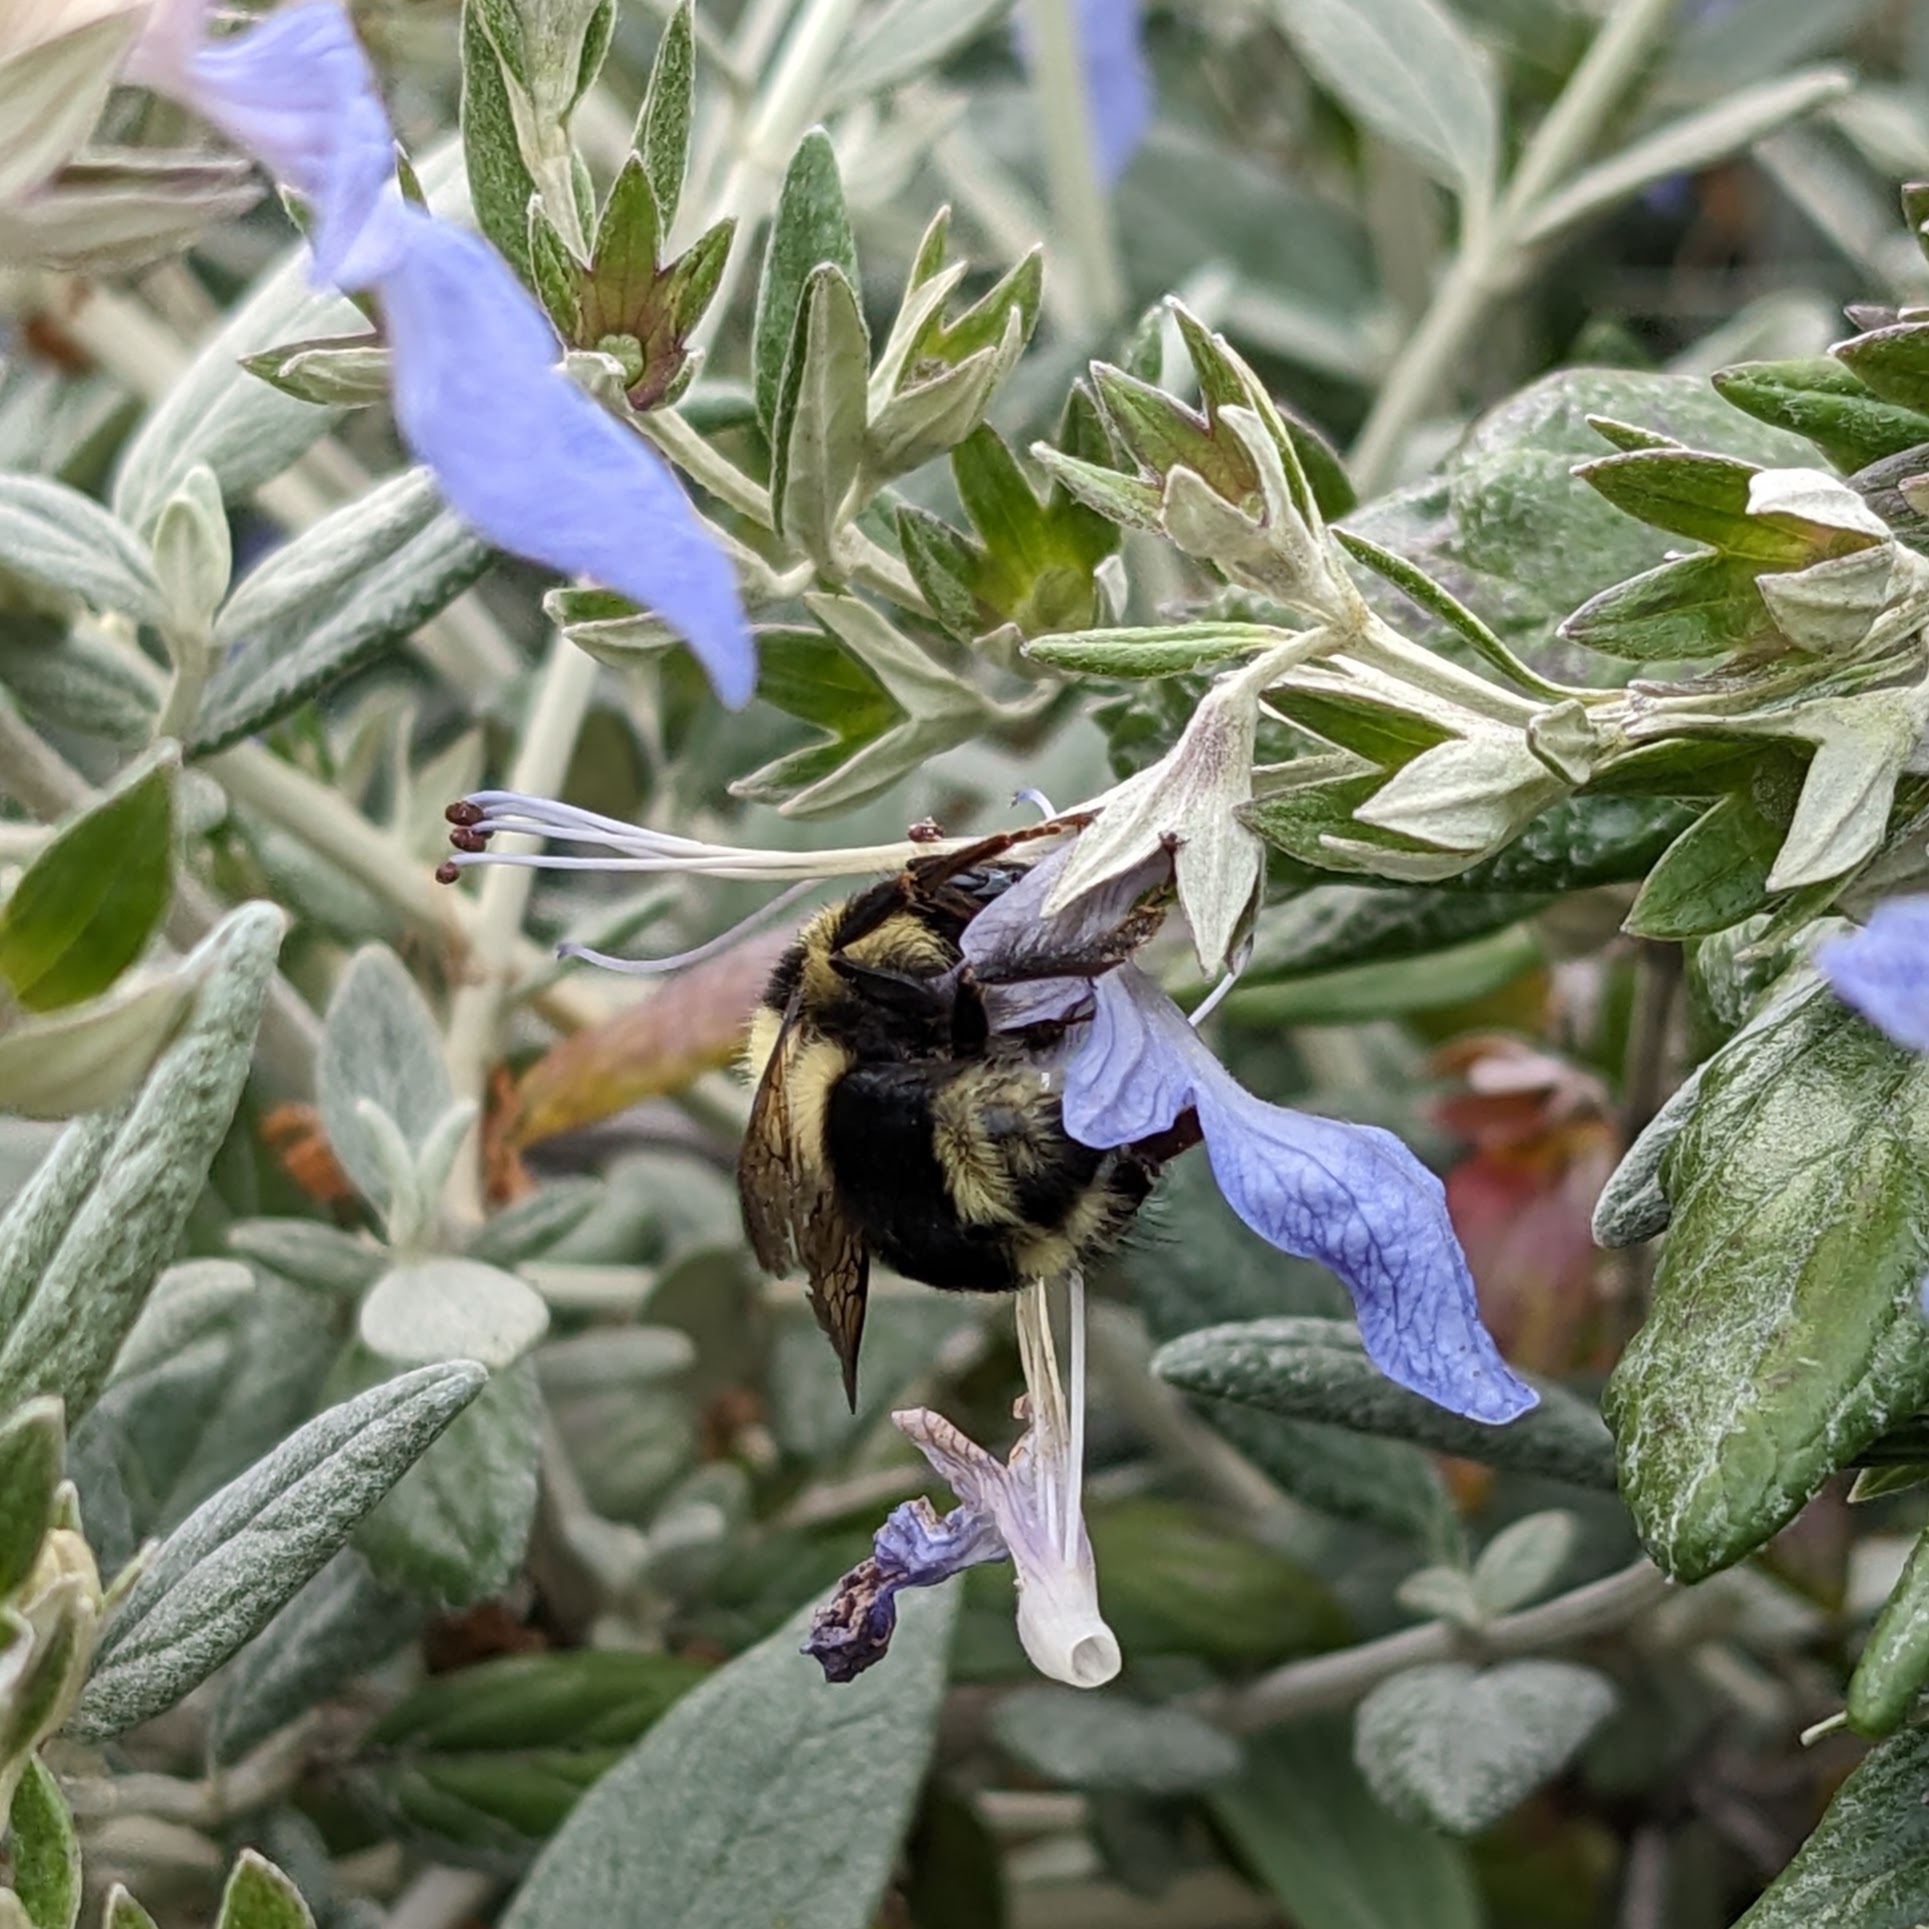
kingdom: Animalia
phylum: Arthropoda
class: Insecta
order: Hymenoptera
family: Apidae
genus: Bombus
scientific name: Bombus melanopygus
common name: Black tail bumble bee
